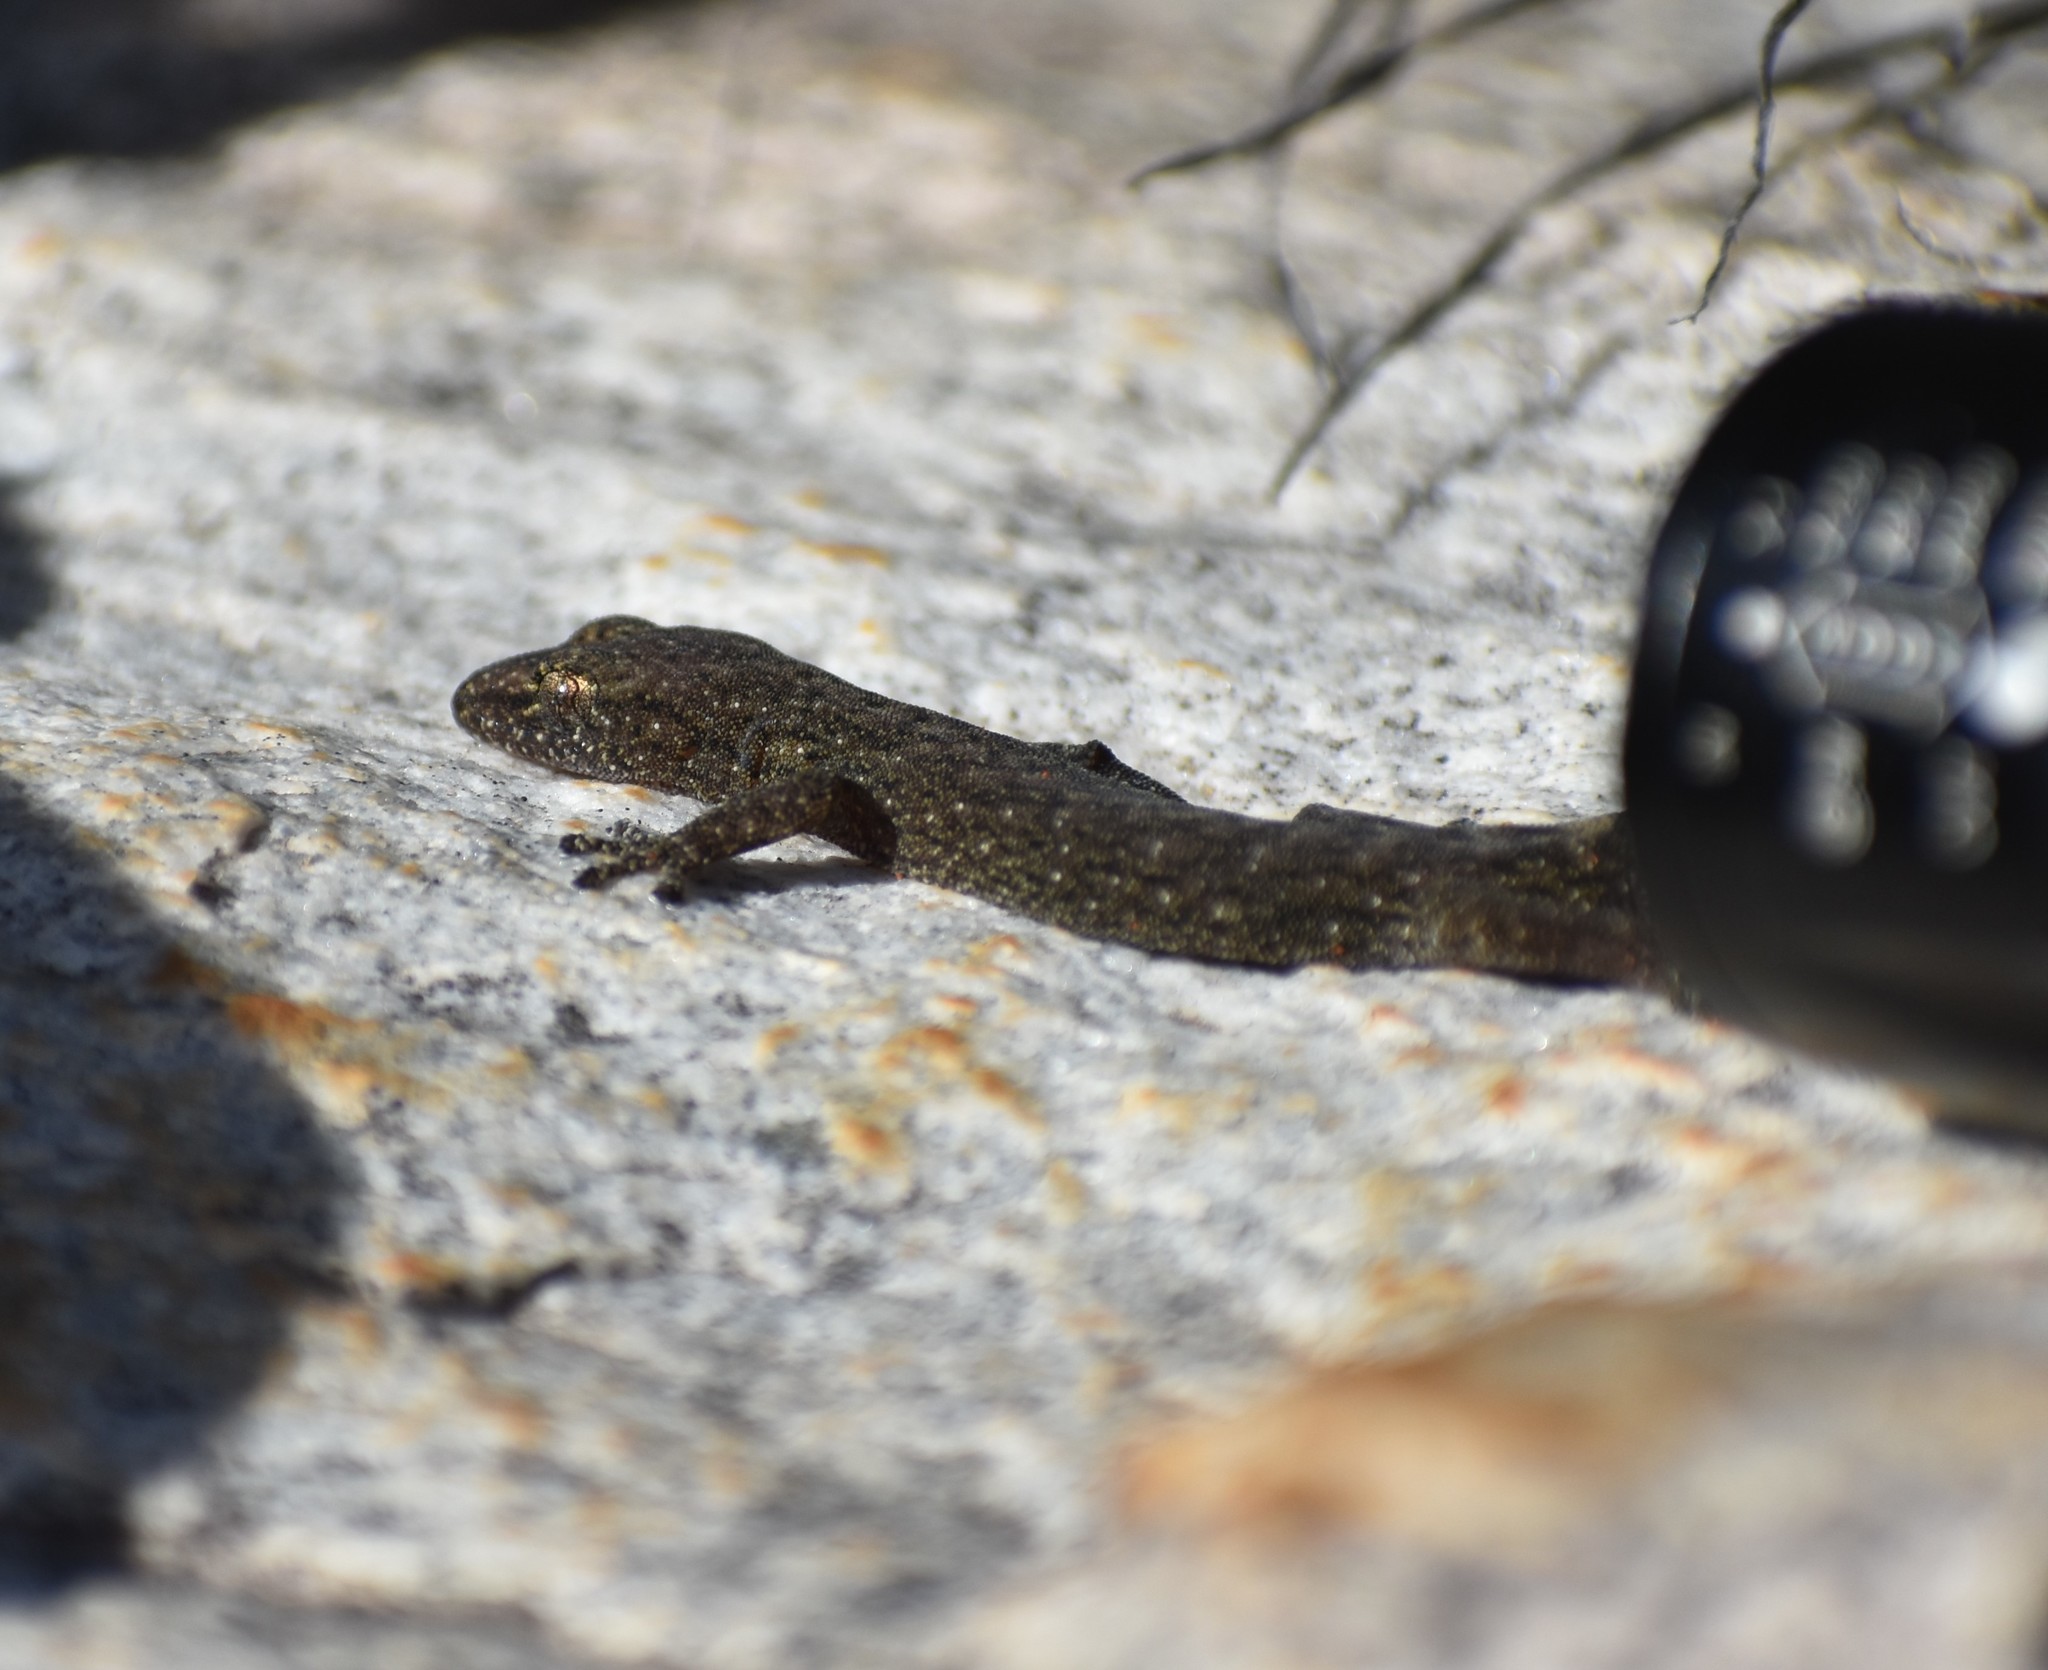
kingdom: Animalia
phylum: Chordata
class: Squamata
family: Gekkonidae
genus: Afrogecko
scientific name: Afrogecko porphyreus
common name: Marbled leaf-toed gecko
